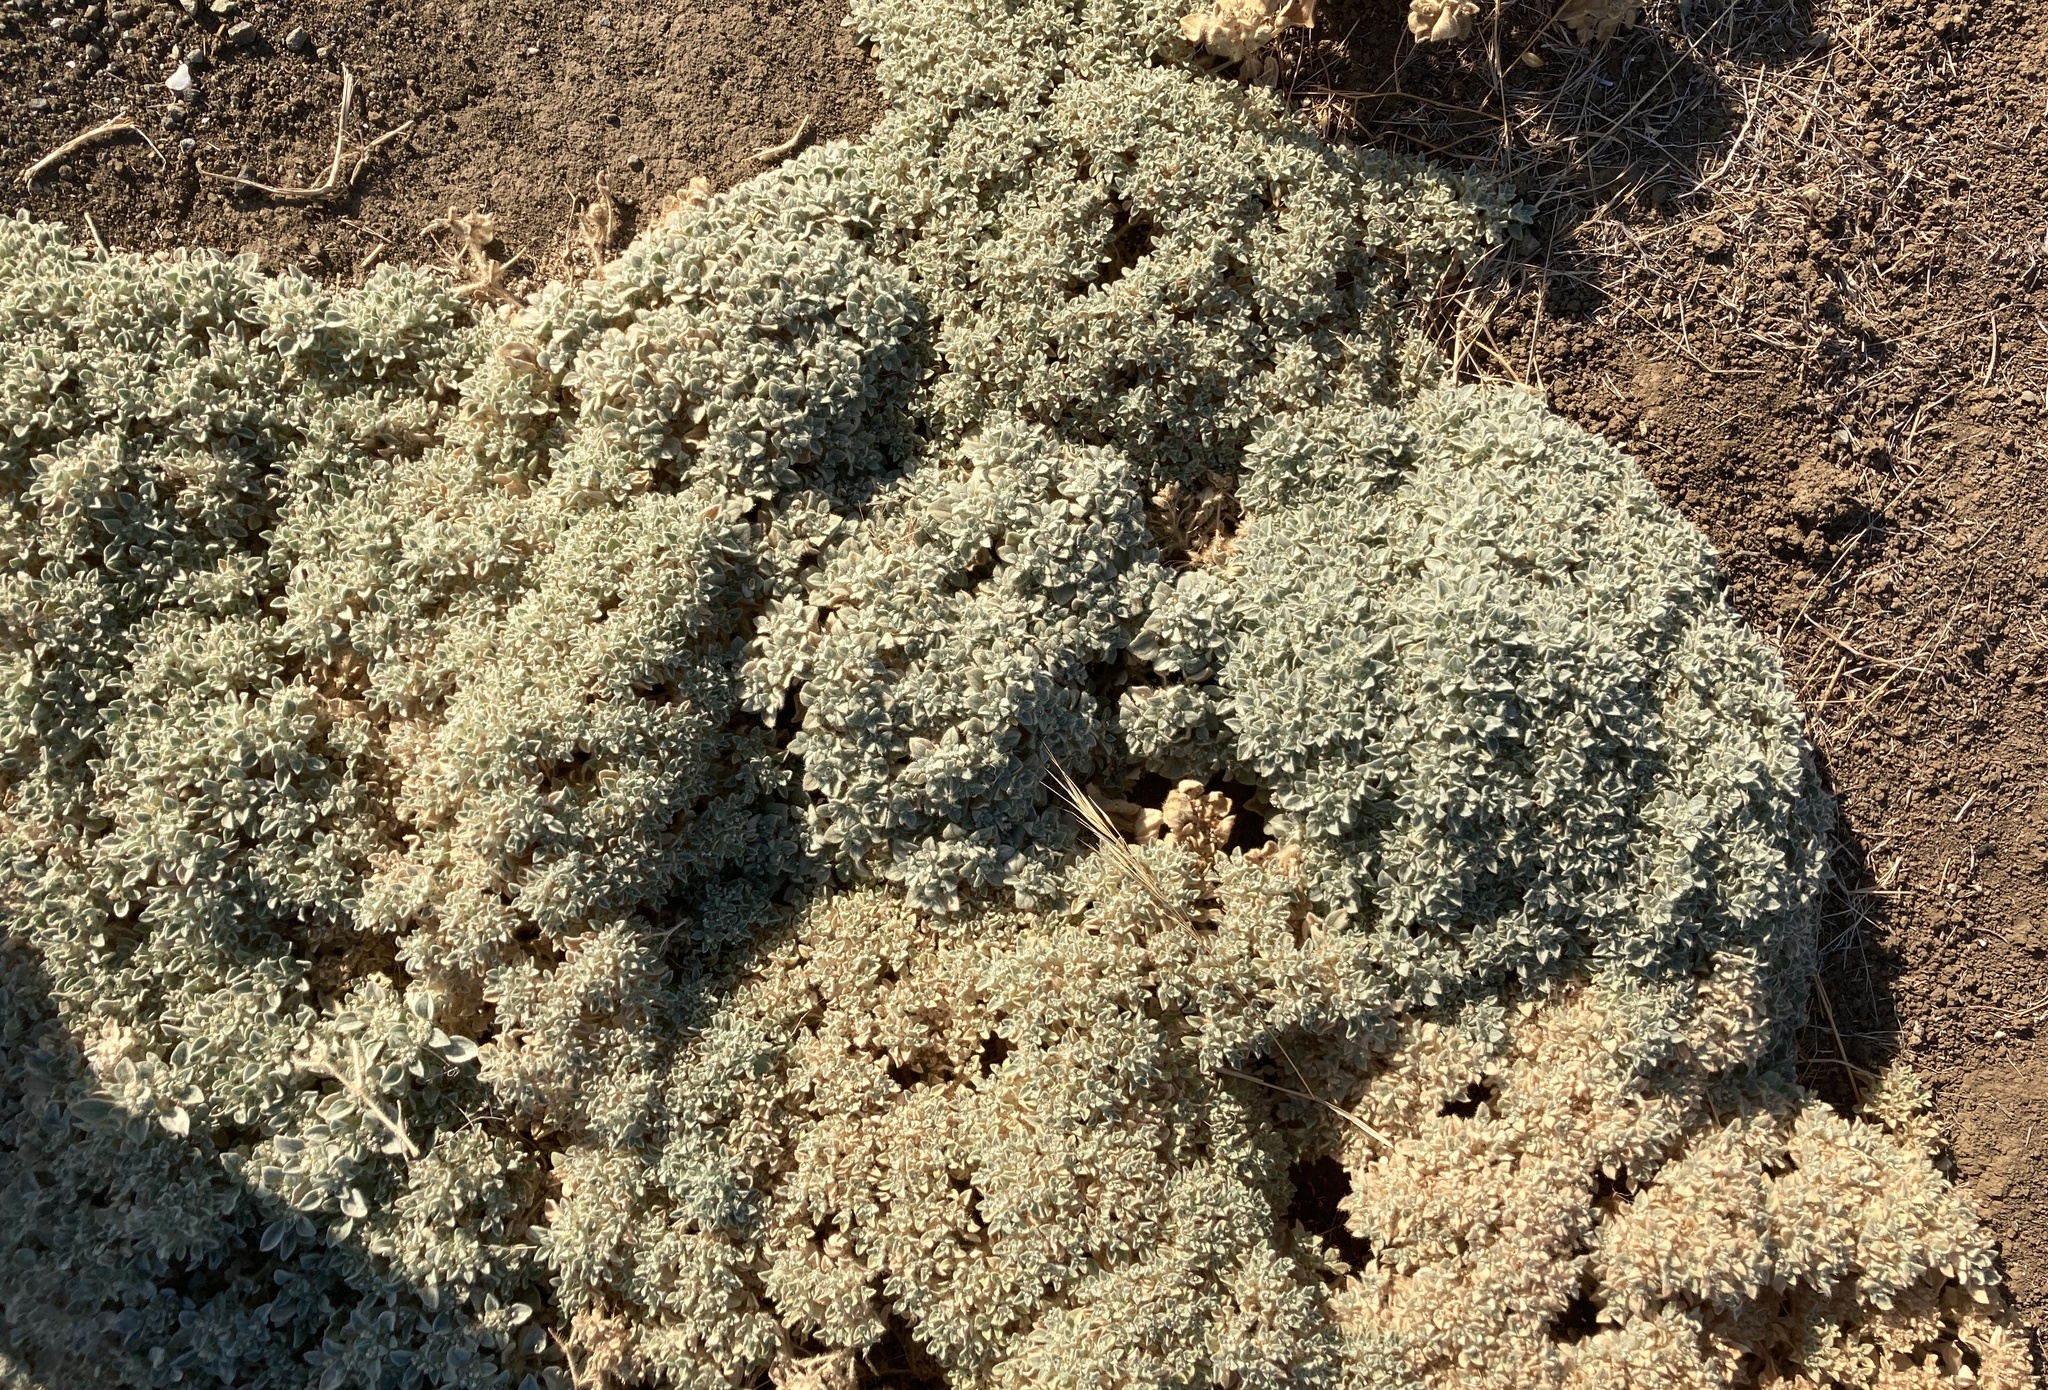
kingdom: Plantae
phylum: Tracheophyta
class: Magnoliopsida
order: Malpighiales
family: Euphorbiaceae
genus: Croton
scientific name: Croton setiger
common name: Dove weed
